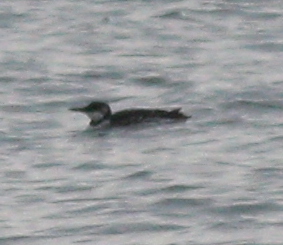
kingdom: Animalia
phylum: Chordata
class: Aves
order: Charadriiformes
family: Alcidae
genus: Uria
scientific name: Uria aalge
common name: Common murre
